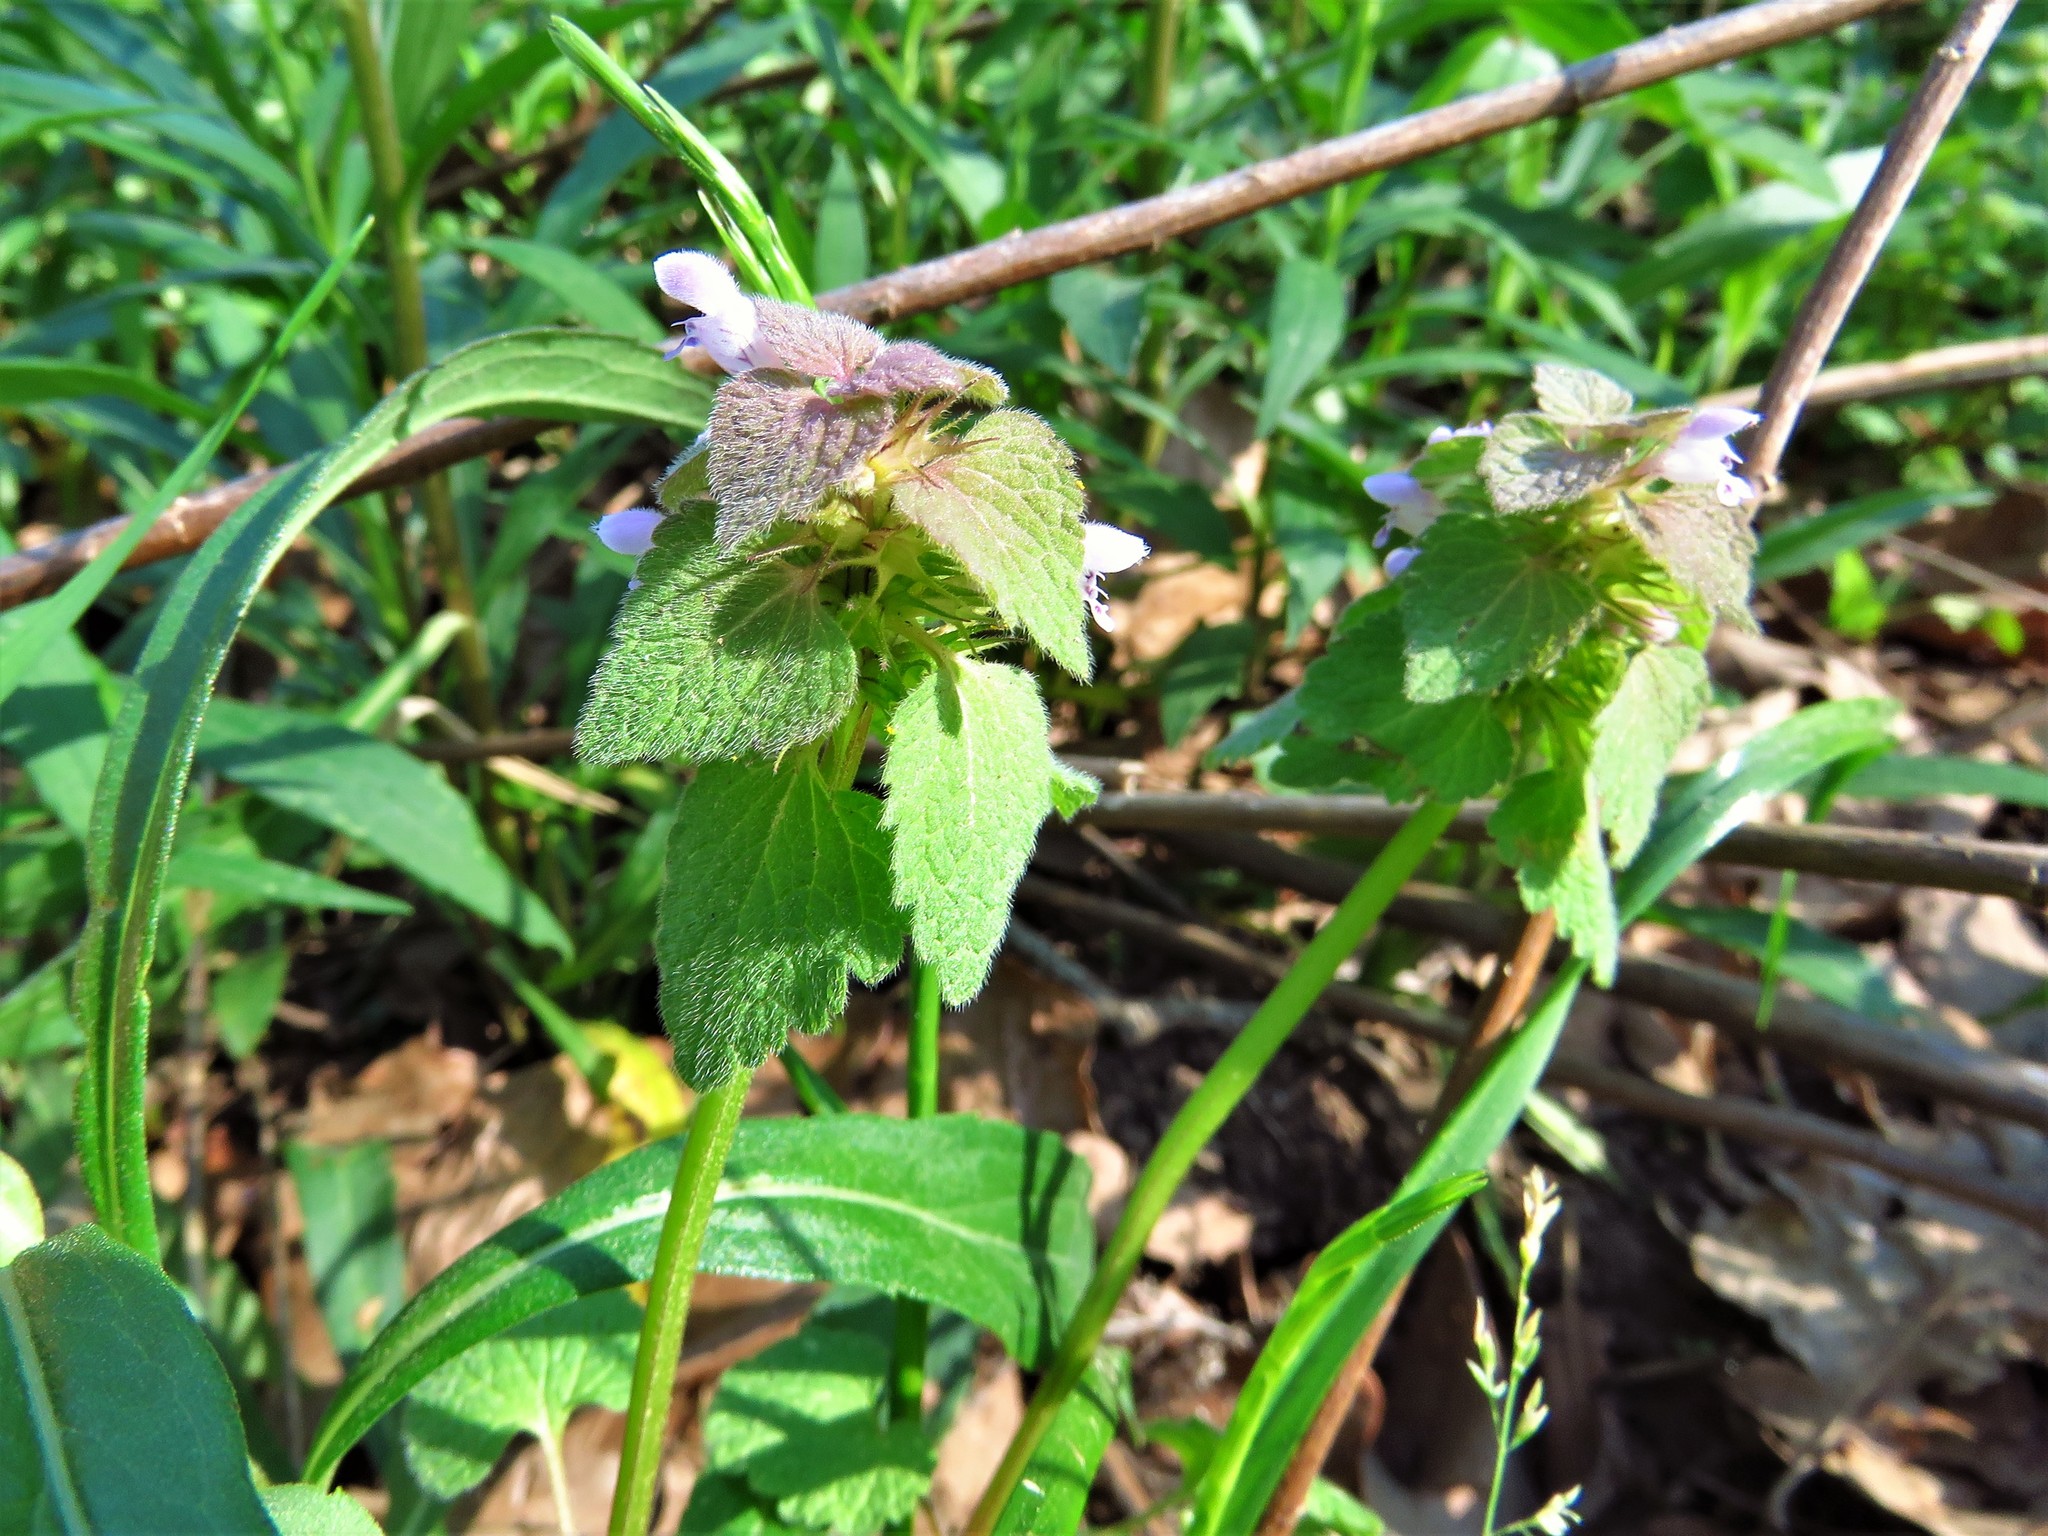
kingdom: Plantae
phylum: Tracheophyta
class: Magnoliopsida
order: Lamiales
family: Lamiaceae
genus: Lamium
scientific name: Lamium purpureum
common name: Red dead-nettle
